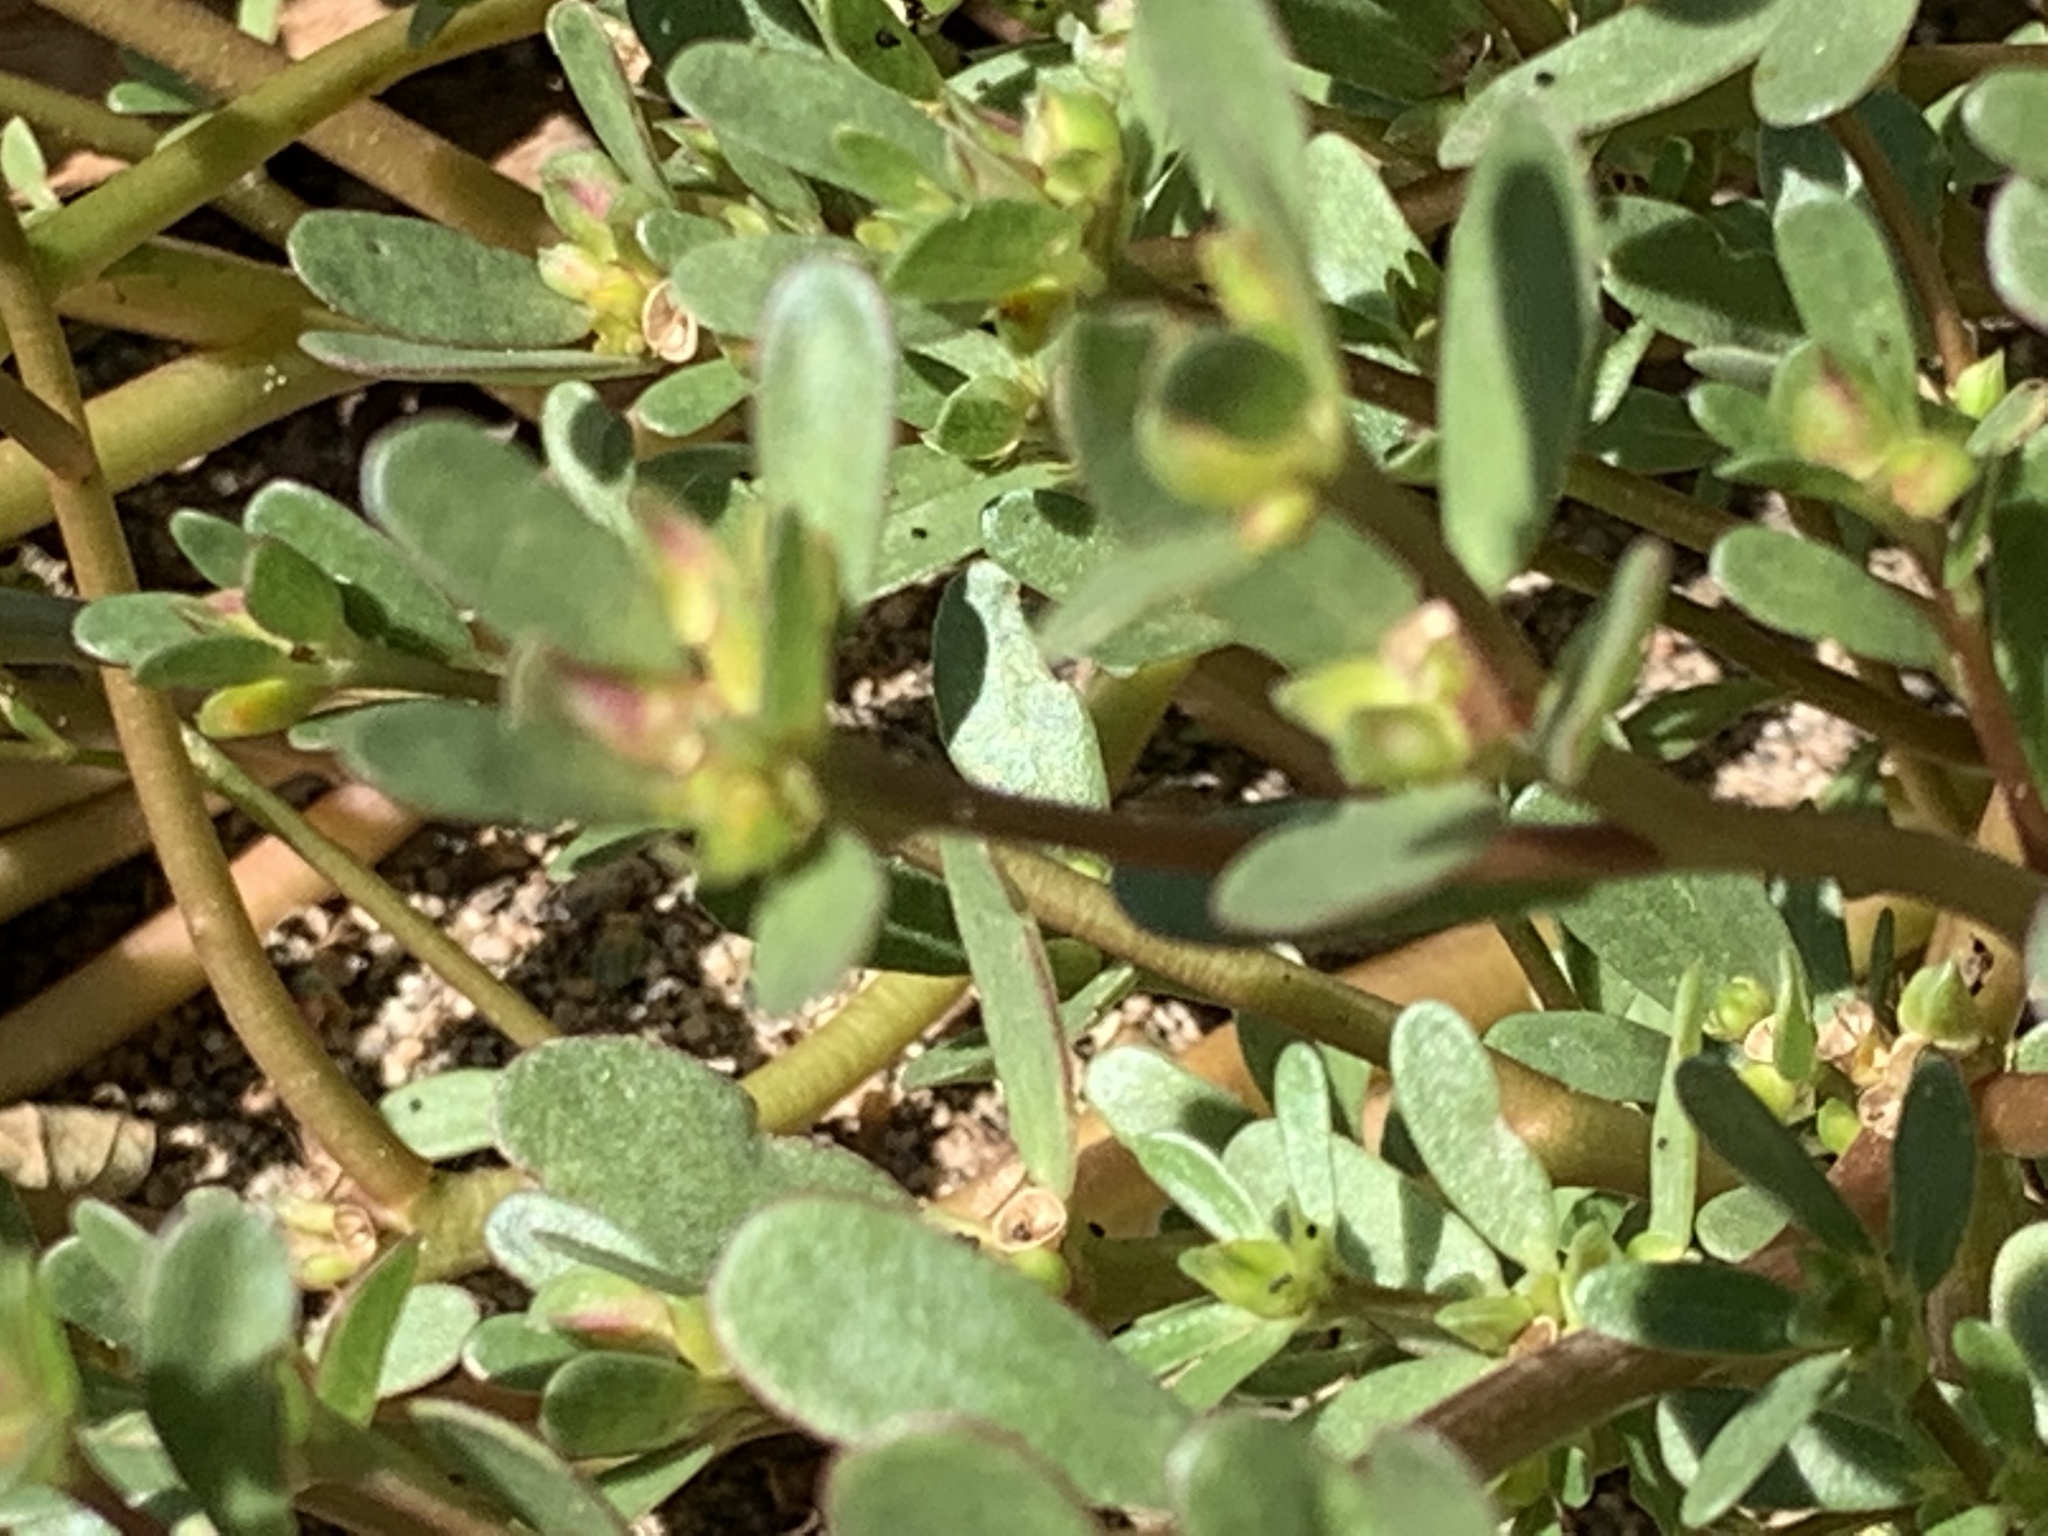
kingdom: Plantae
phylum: Tracheophyta
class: Magnoliopsida
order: Caryophyllales
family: Portulacaceae
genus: Portulaca
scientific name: Portulaca oleracea
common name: Common purslane
